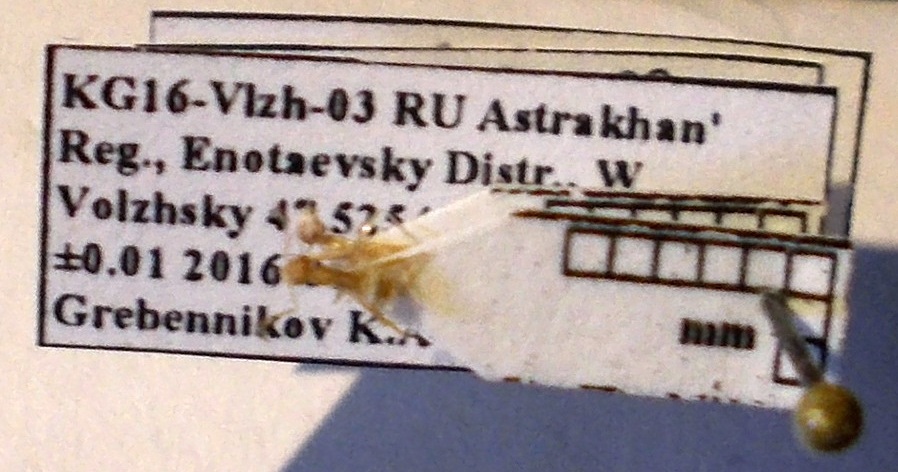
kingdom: Animalia
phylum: Arthropoda
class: Insecta
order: Hymenoptera
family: Formicidae
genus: Cataglyphis
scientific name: Cataglyphis pallidus
